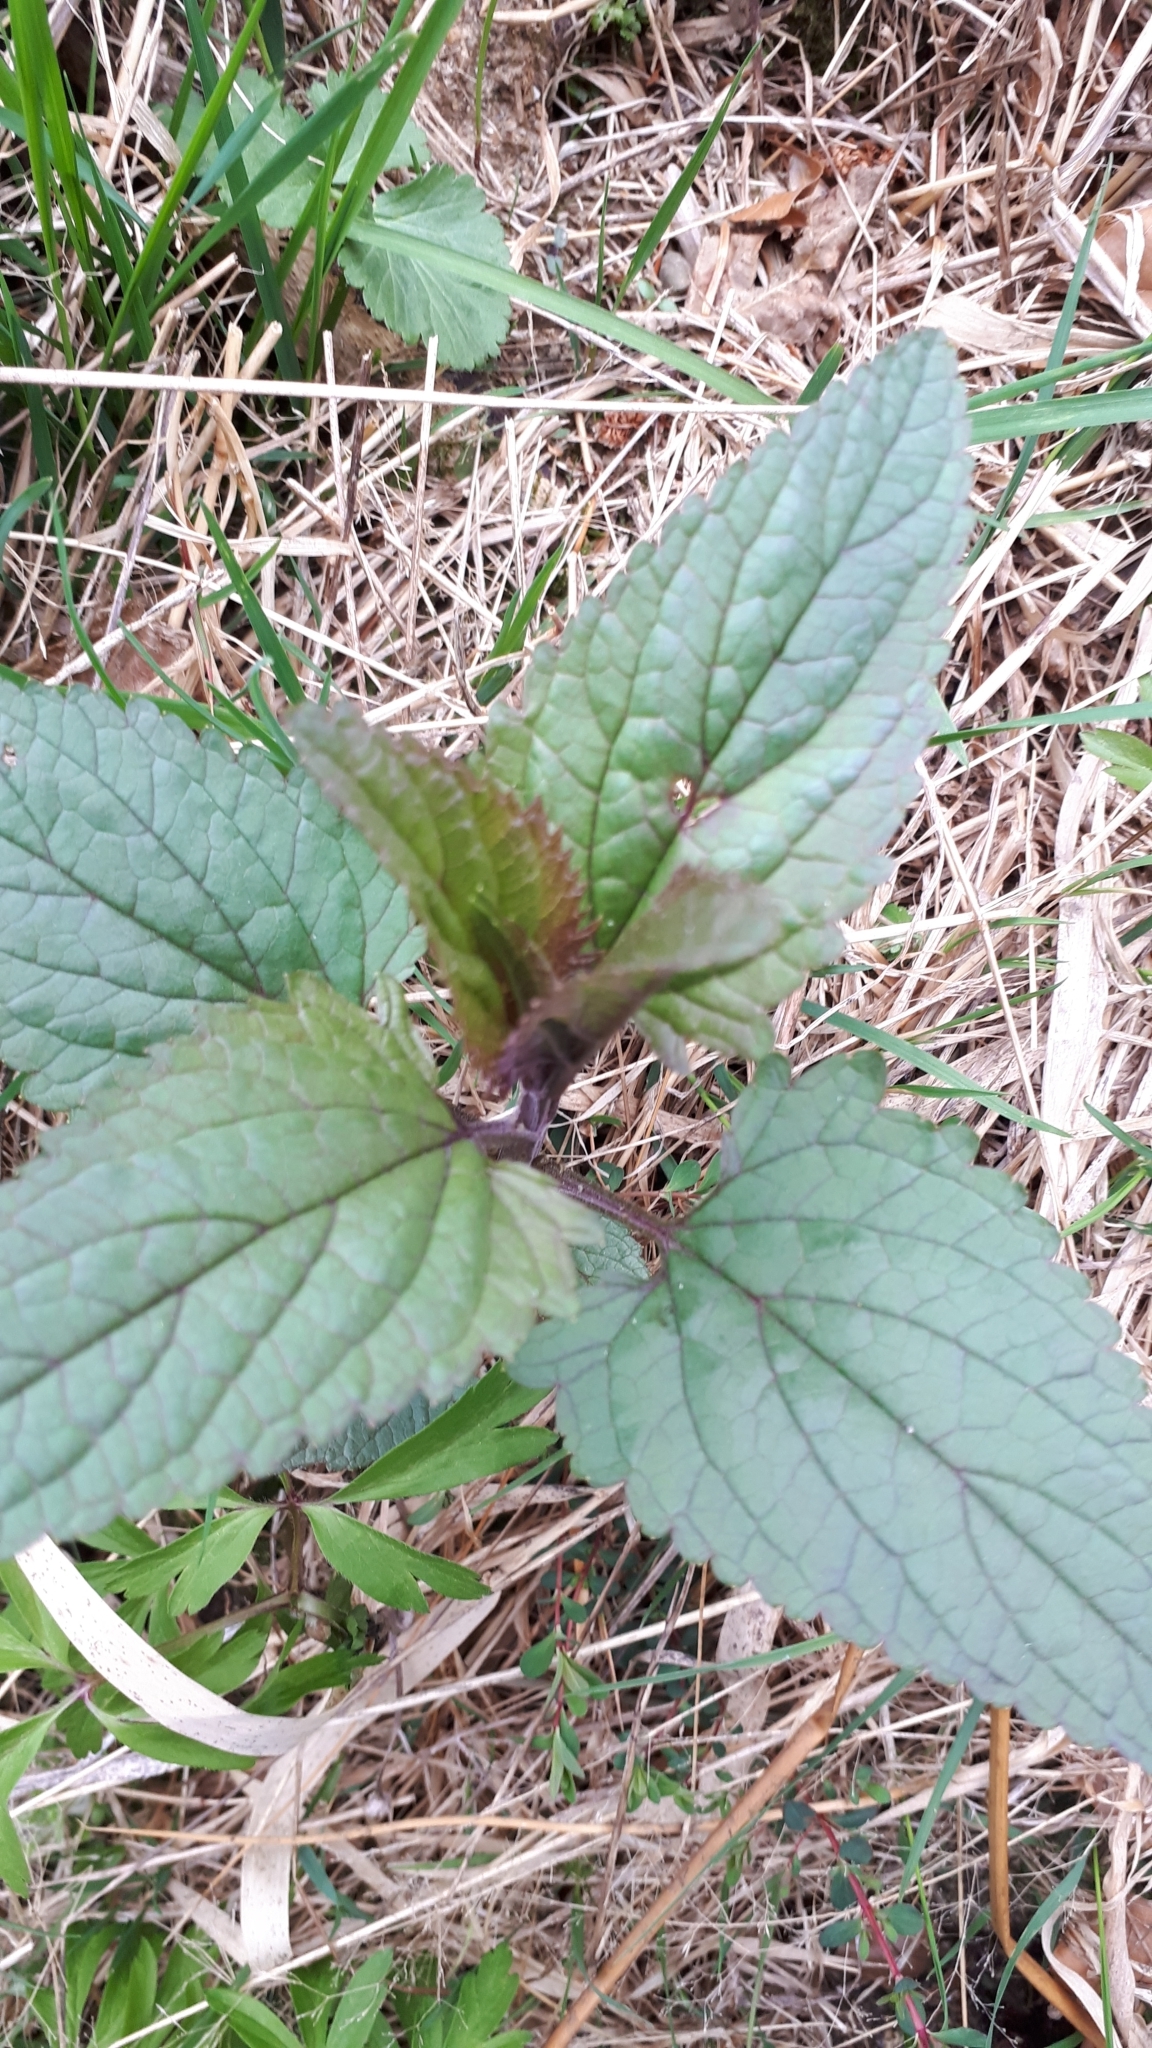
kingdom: Plantae
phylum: Tracheophyta
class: Magnoliopsida
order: Lamiales
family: Scrophulariaceae
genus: Scrophularia
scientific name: Scrophularia nodosa
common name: Common figwort
